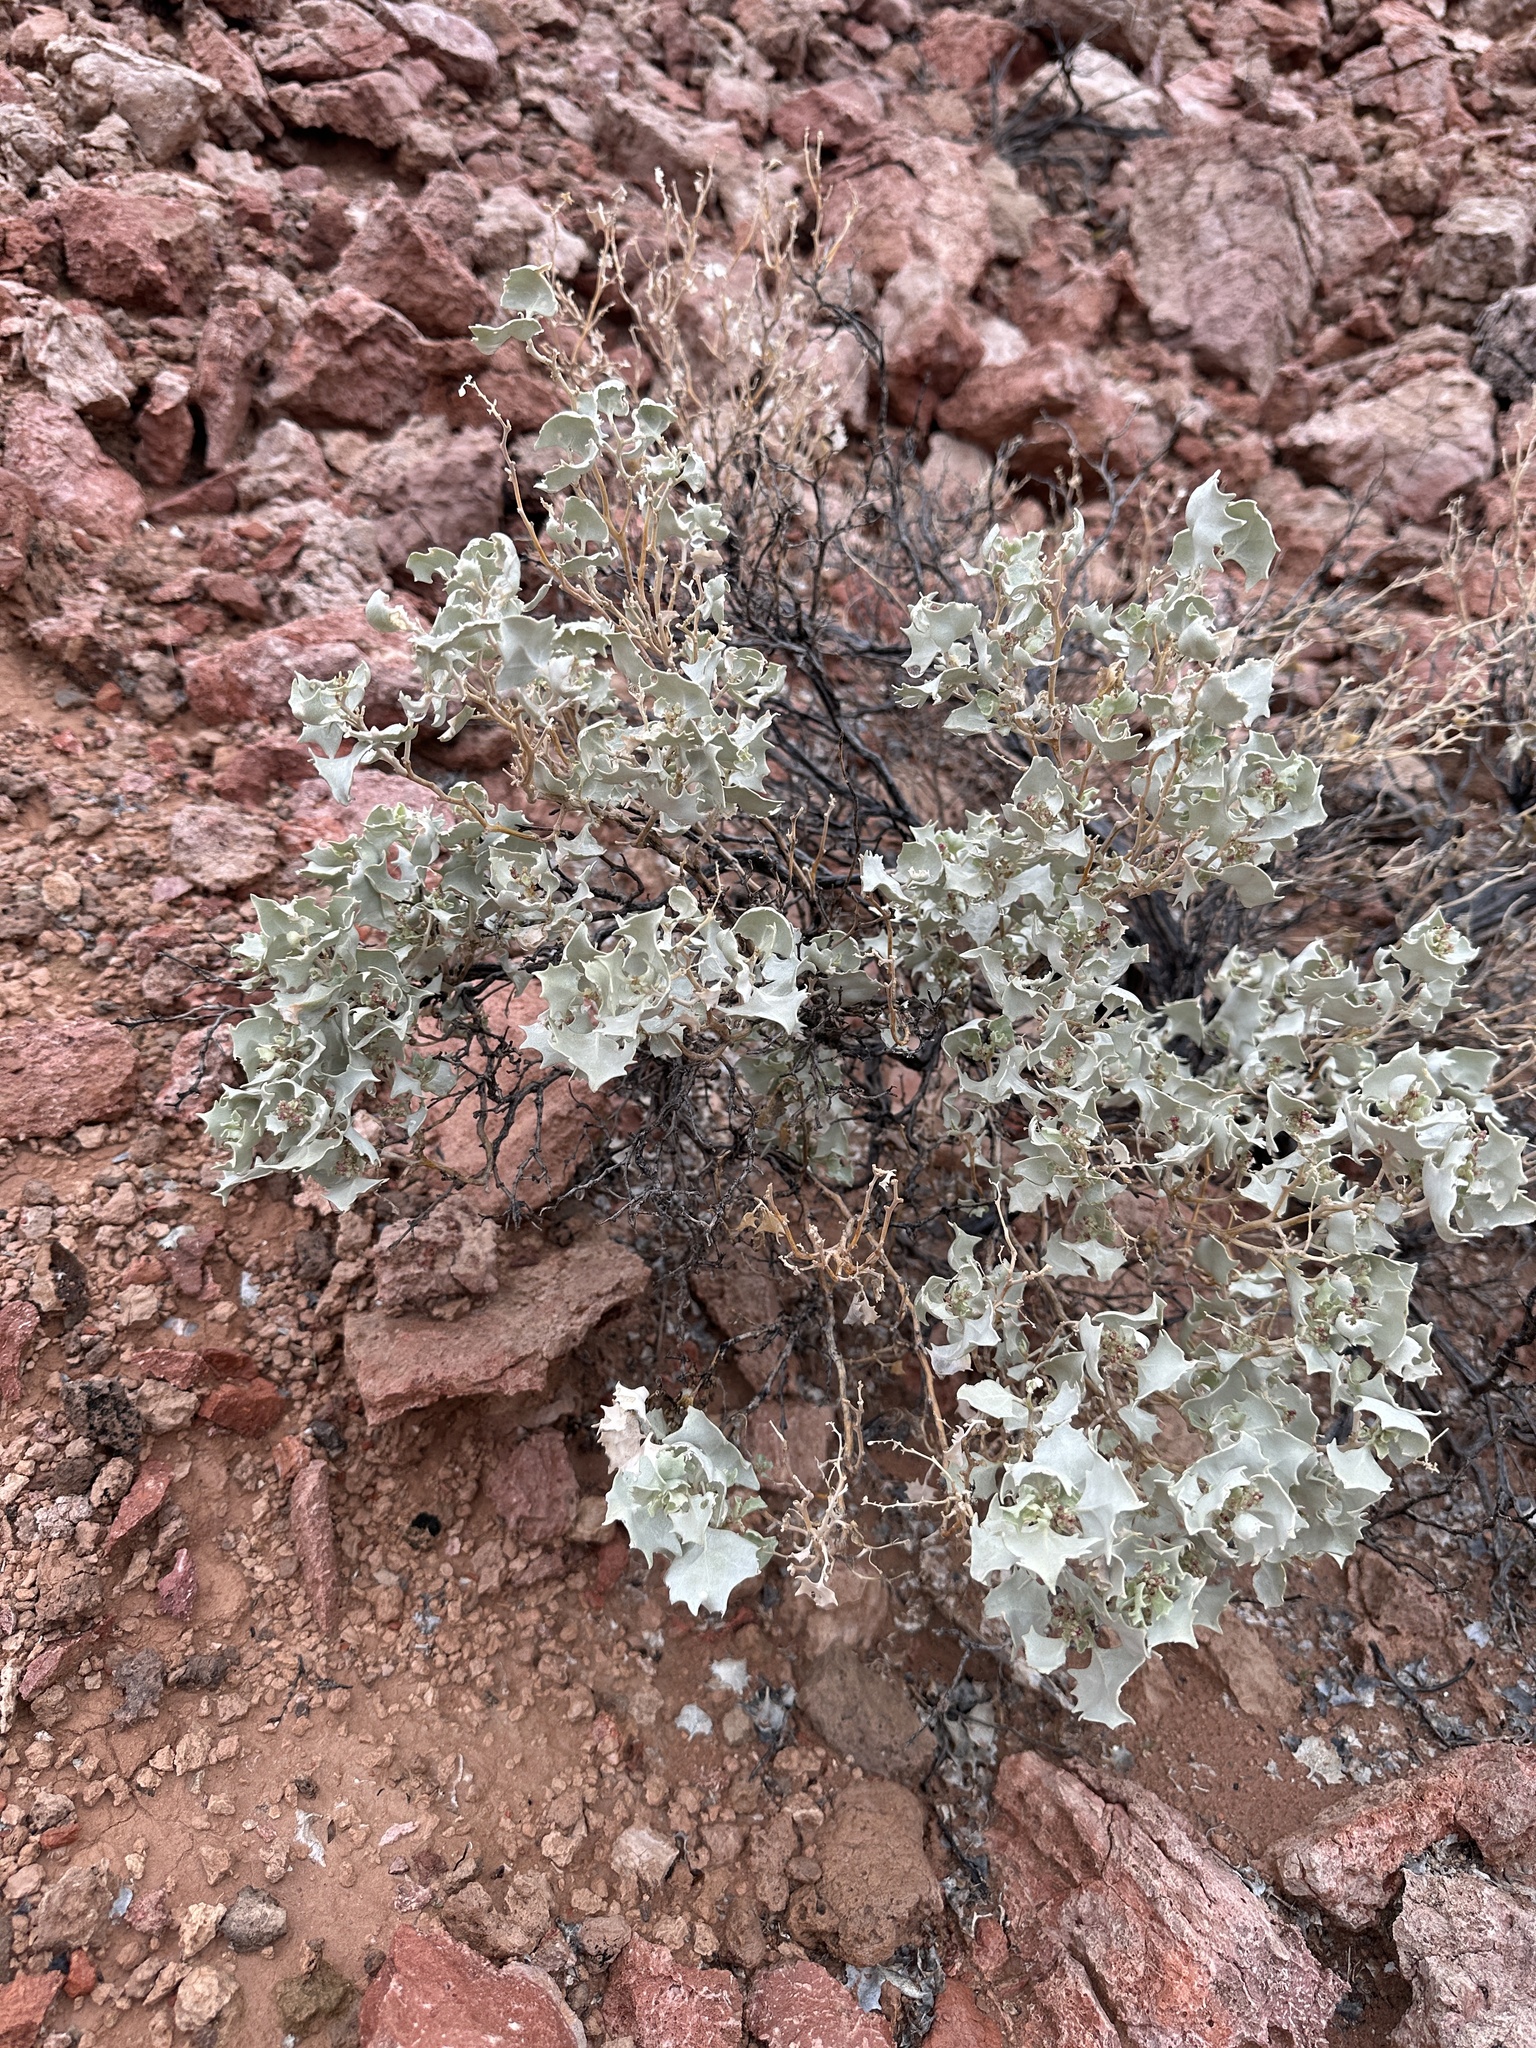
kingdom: Plantae
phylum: Tracheophyta
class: Magnoliopsida
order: Caryophyllales
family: Amaranthaceae
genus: Atriplex
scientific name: Atriplex hymenelytra
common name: Desert-holly
